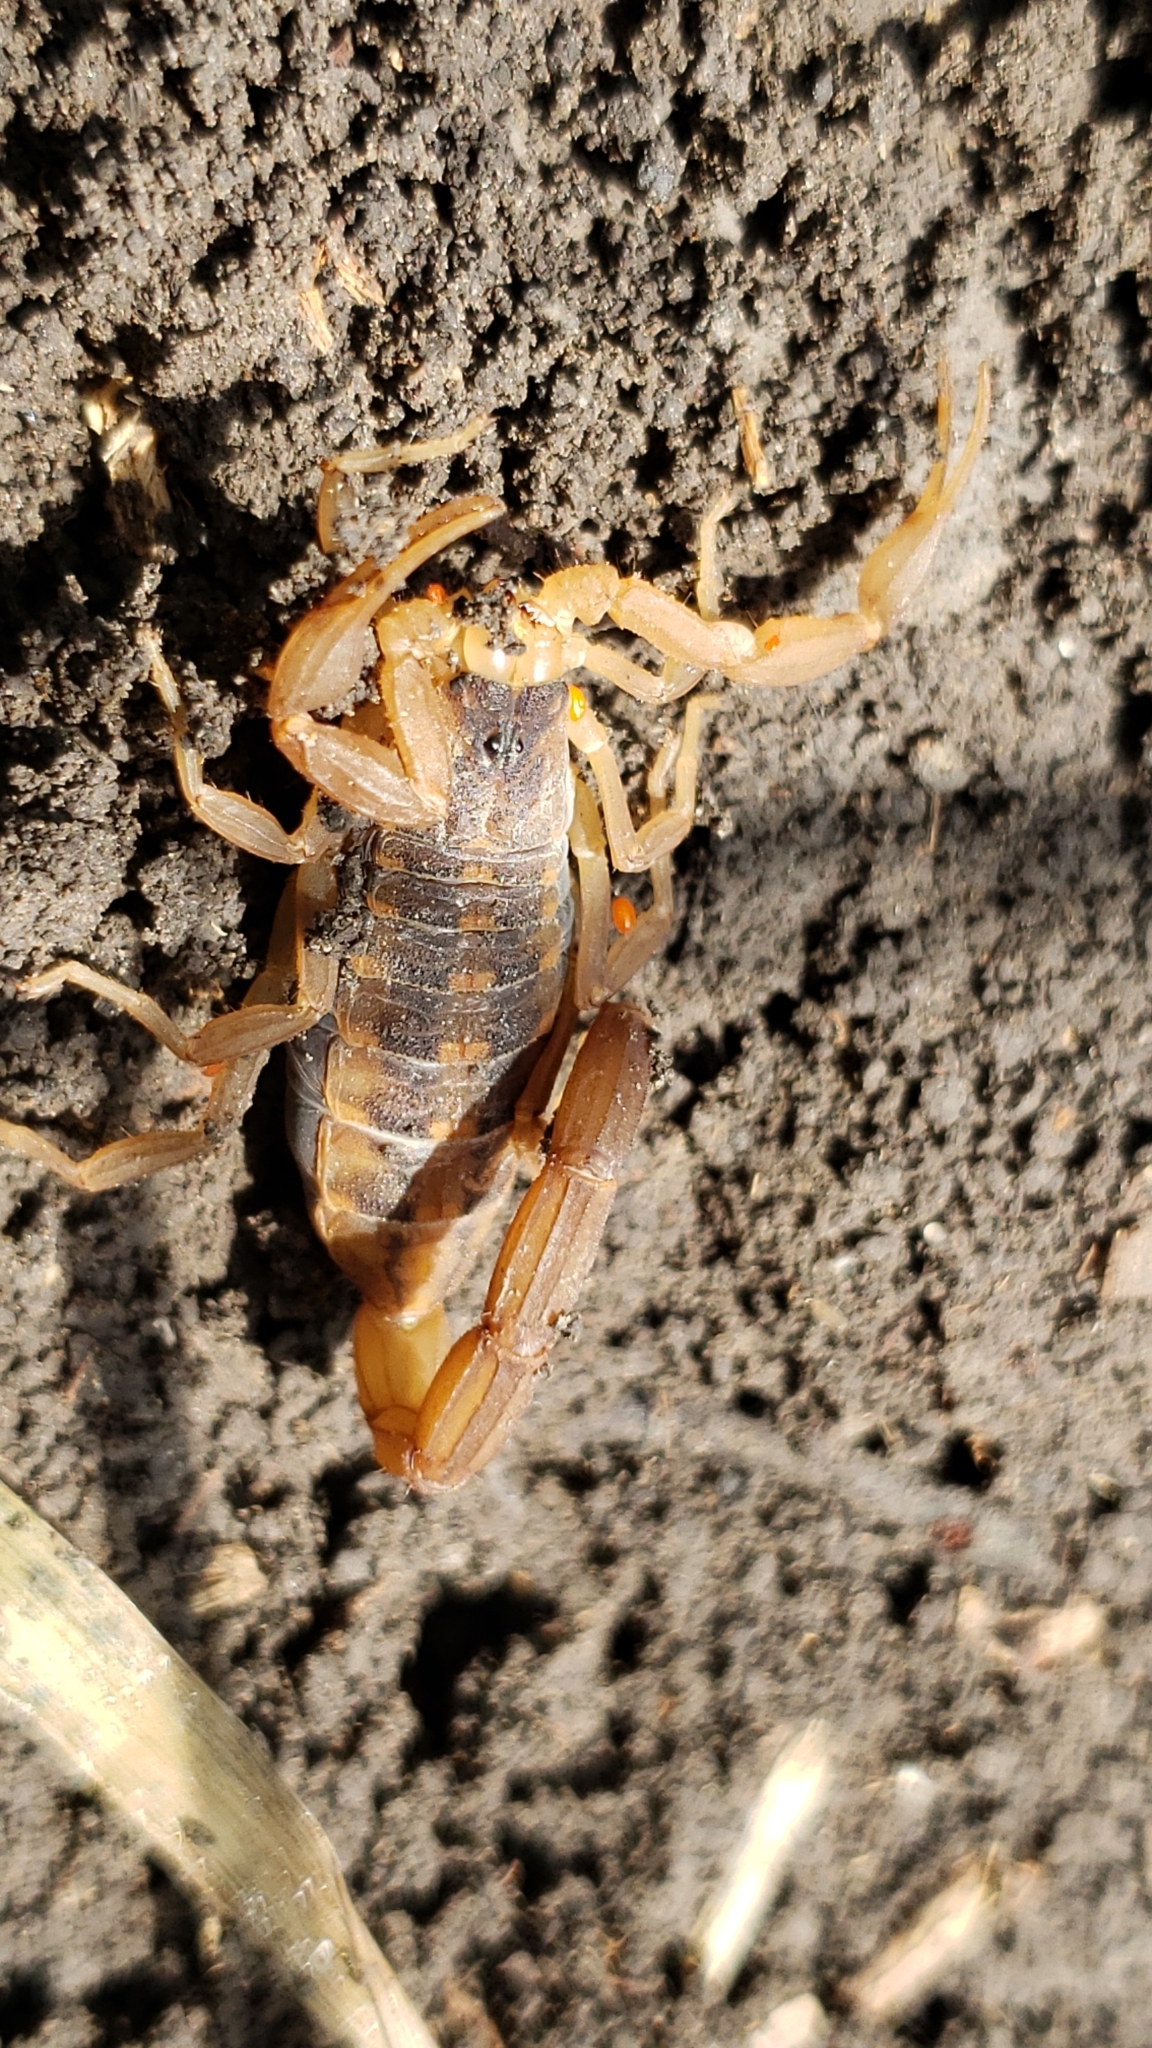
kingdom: Animalia
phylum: Arthropoda
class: Arachnida
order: Scorpiones
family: Buthidae
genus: Centruroides
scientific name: Centruroides vittatus
